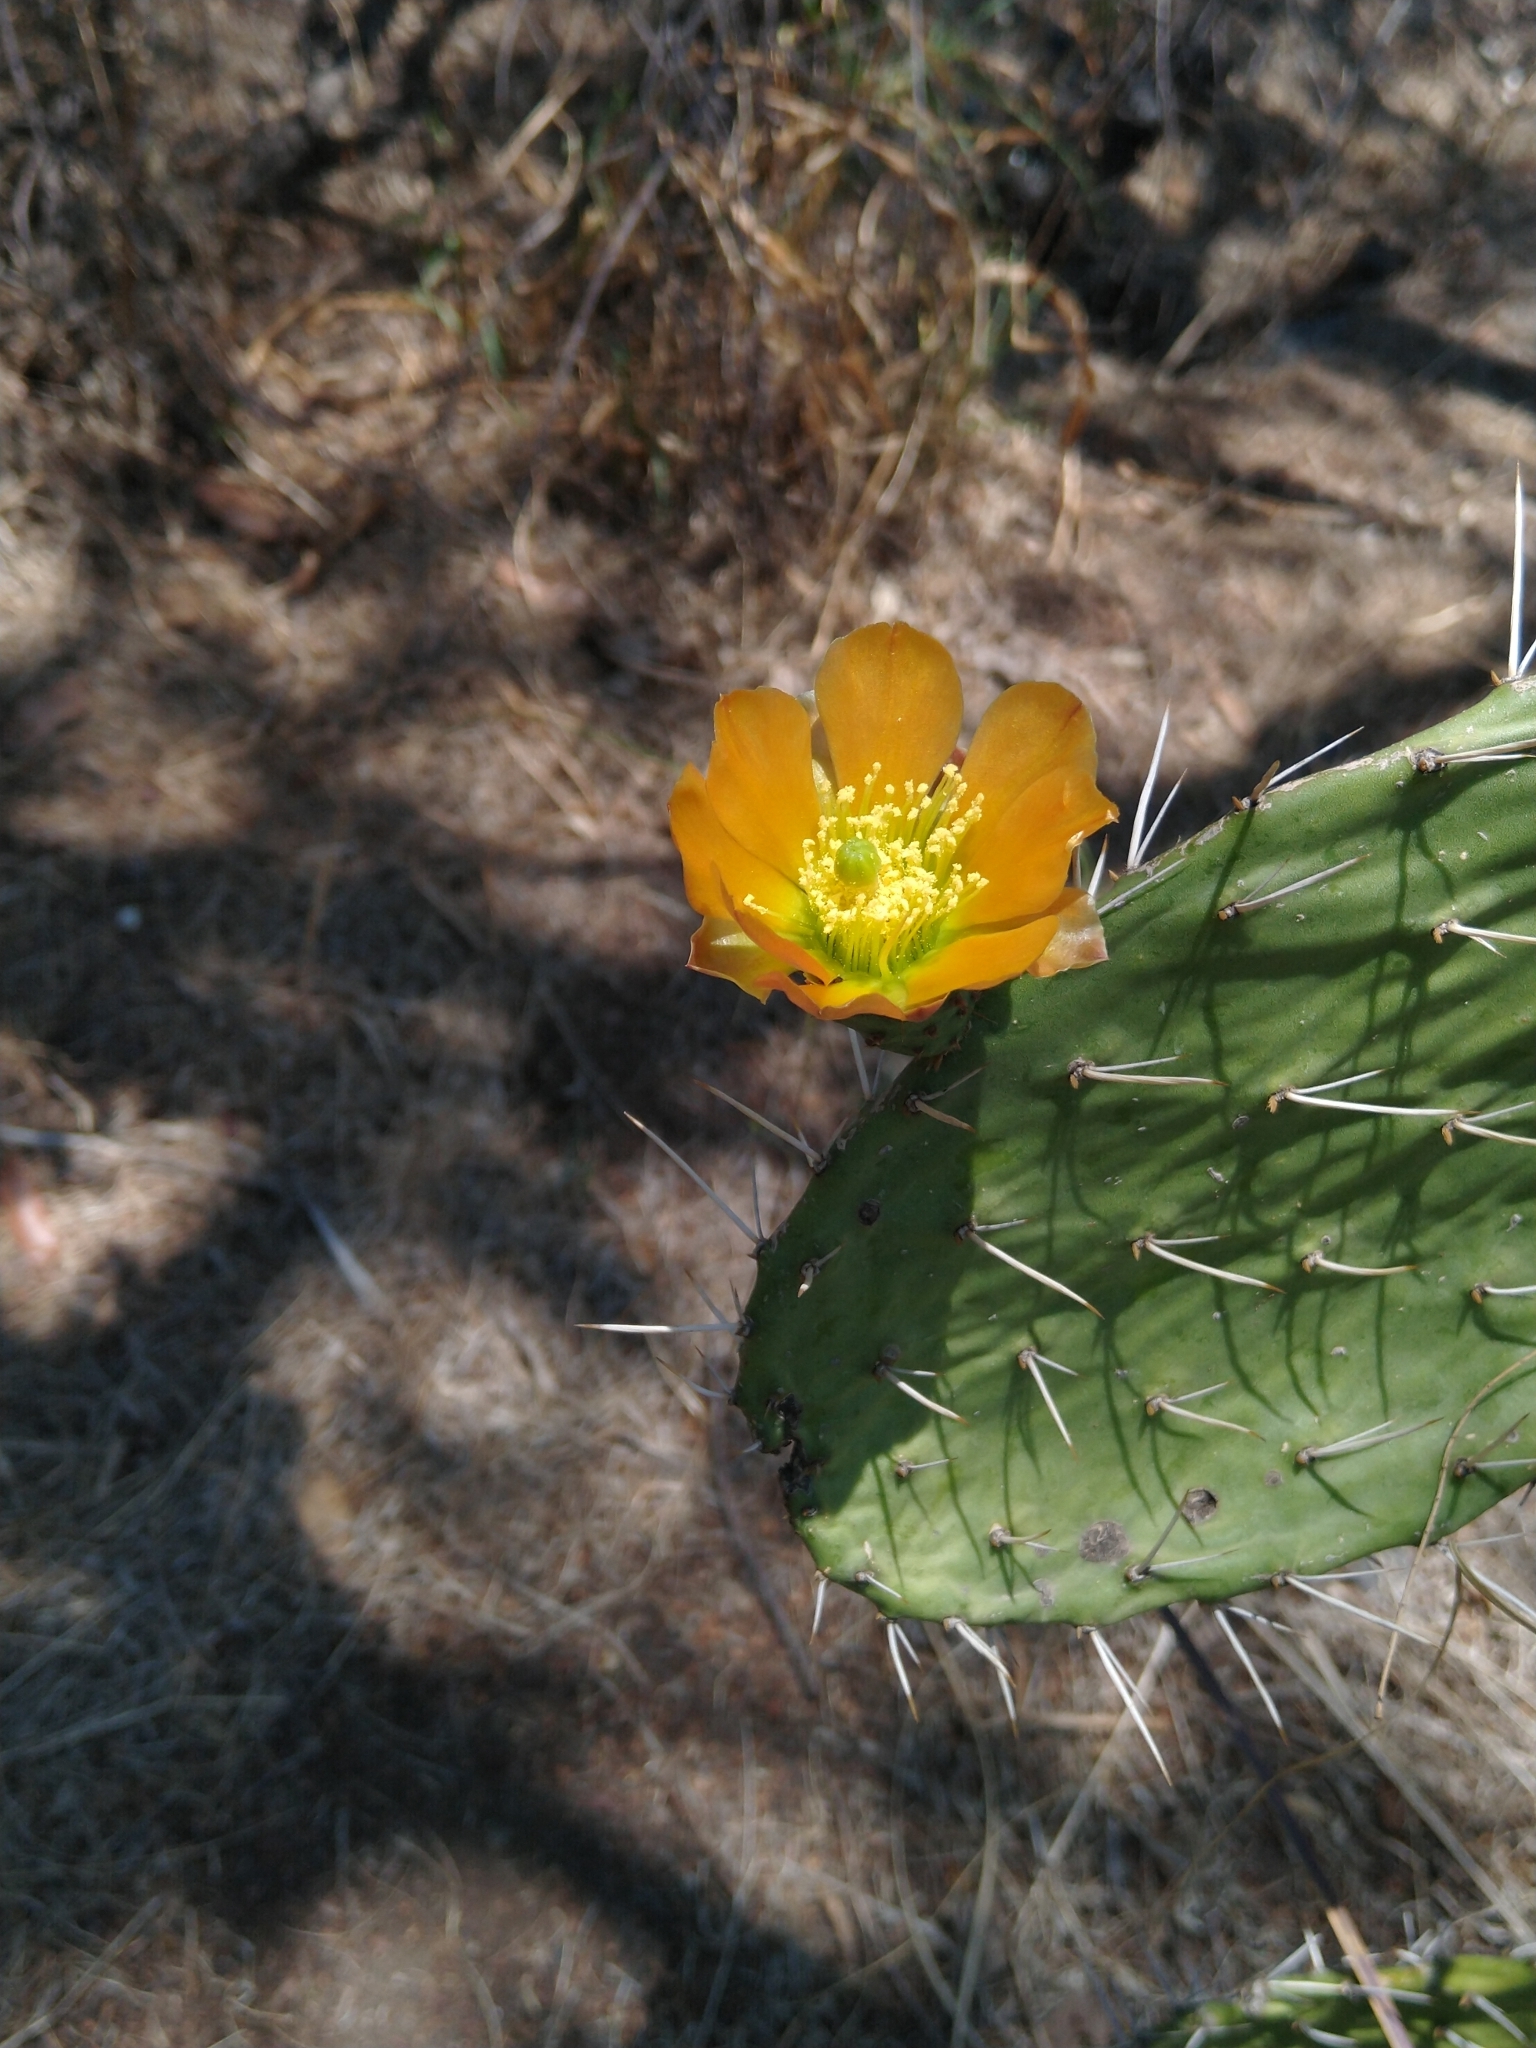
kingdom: Plantae
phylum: Tracheophyta
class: Magnoliopsida
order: Caryophyllales
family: Cactaceae
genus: Opuntia
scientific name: Opuntia lasiacantha
